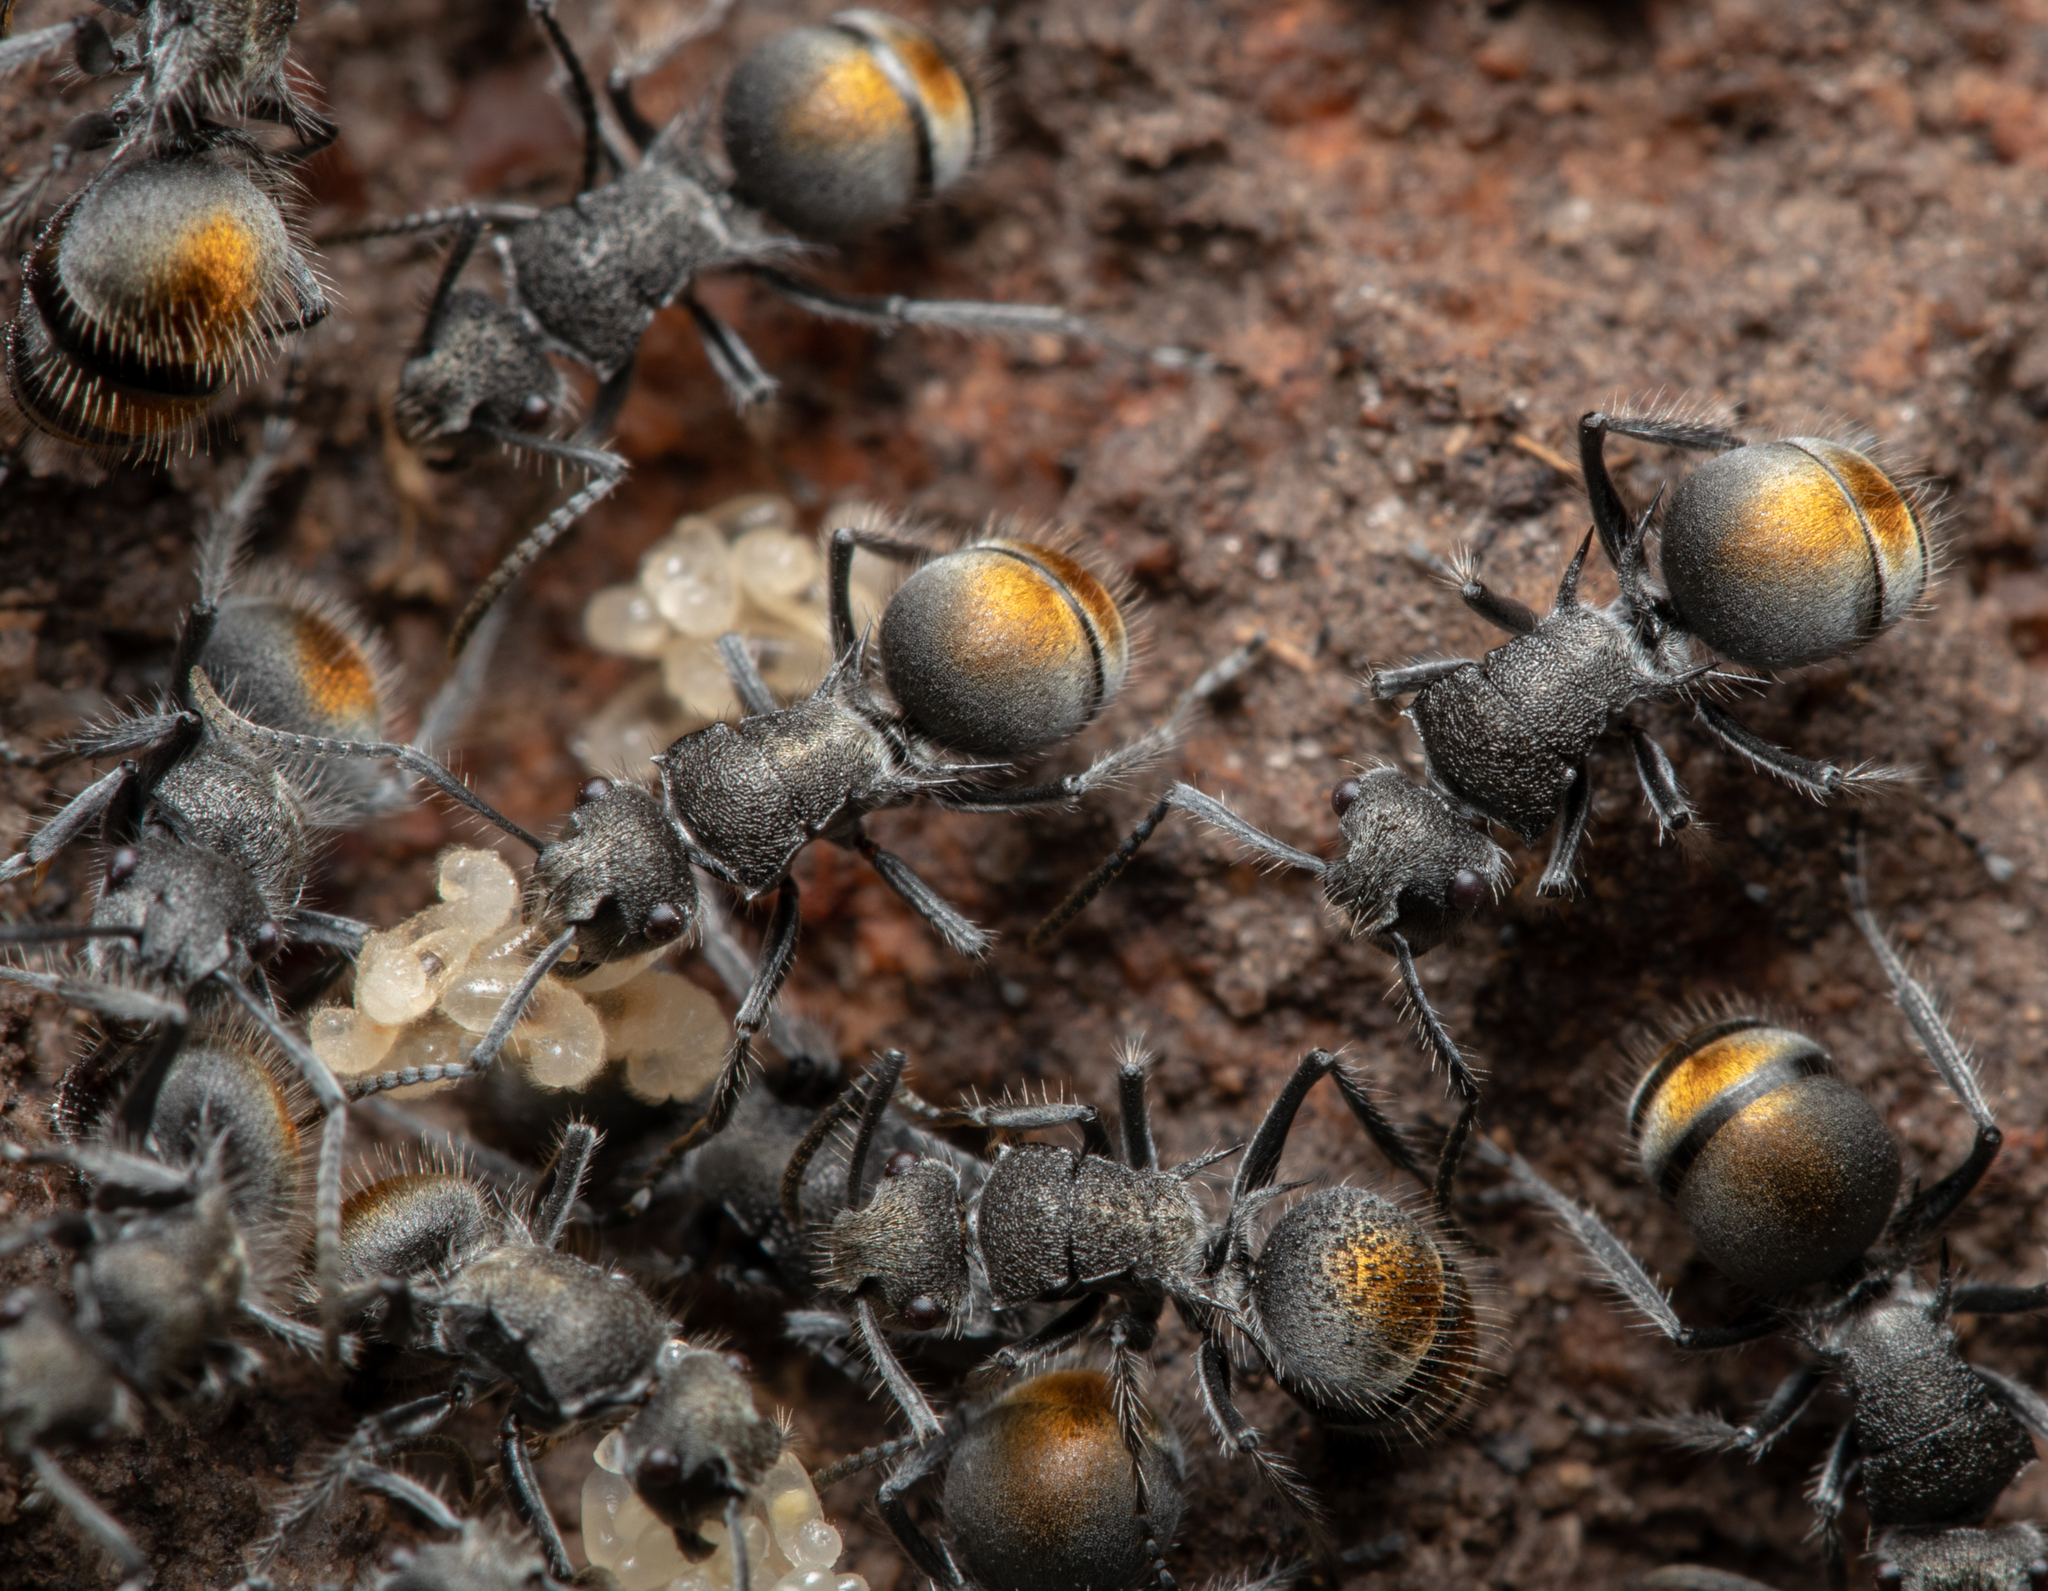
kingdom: Animalia
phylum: Arthropoda
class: Insecta
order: Hymenoptera
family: Formicidae
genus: Polyrhachis
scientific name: Polyrhachis vermiculosa
